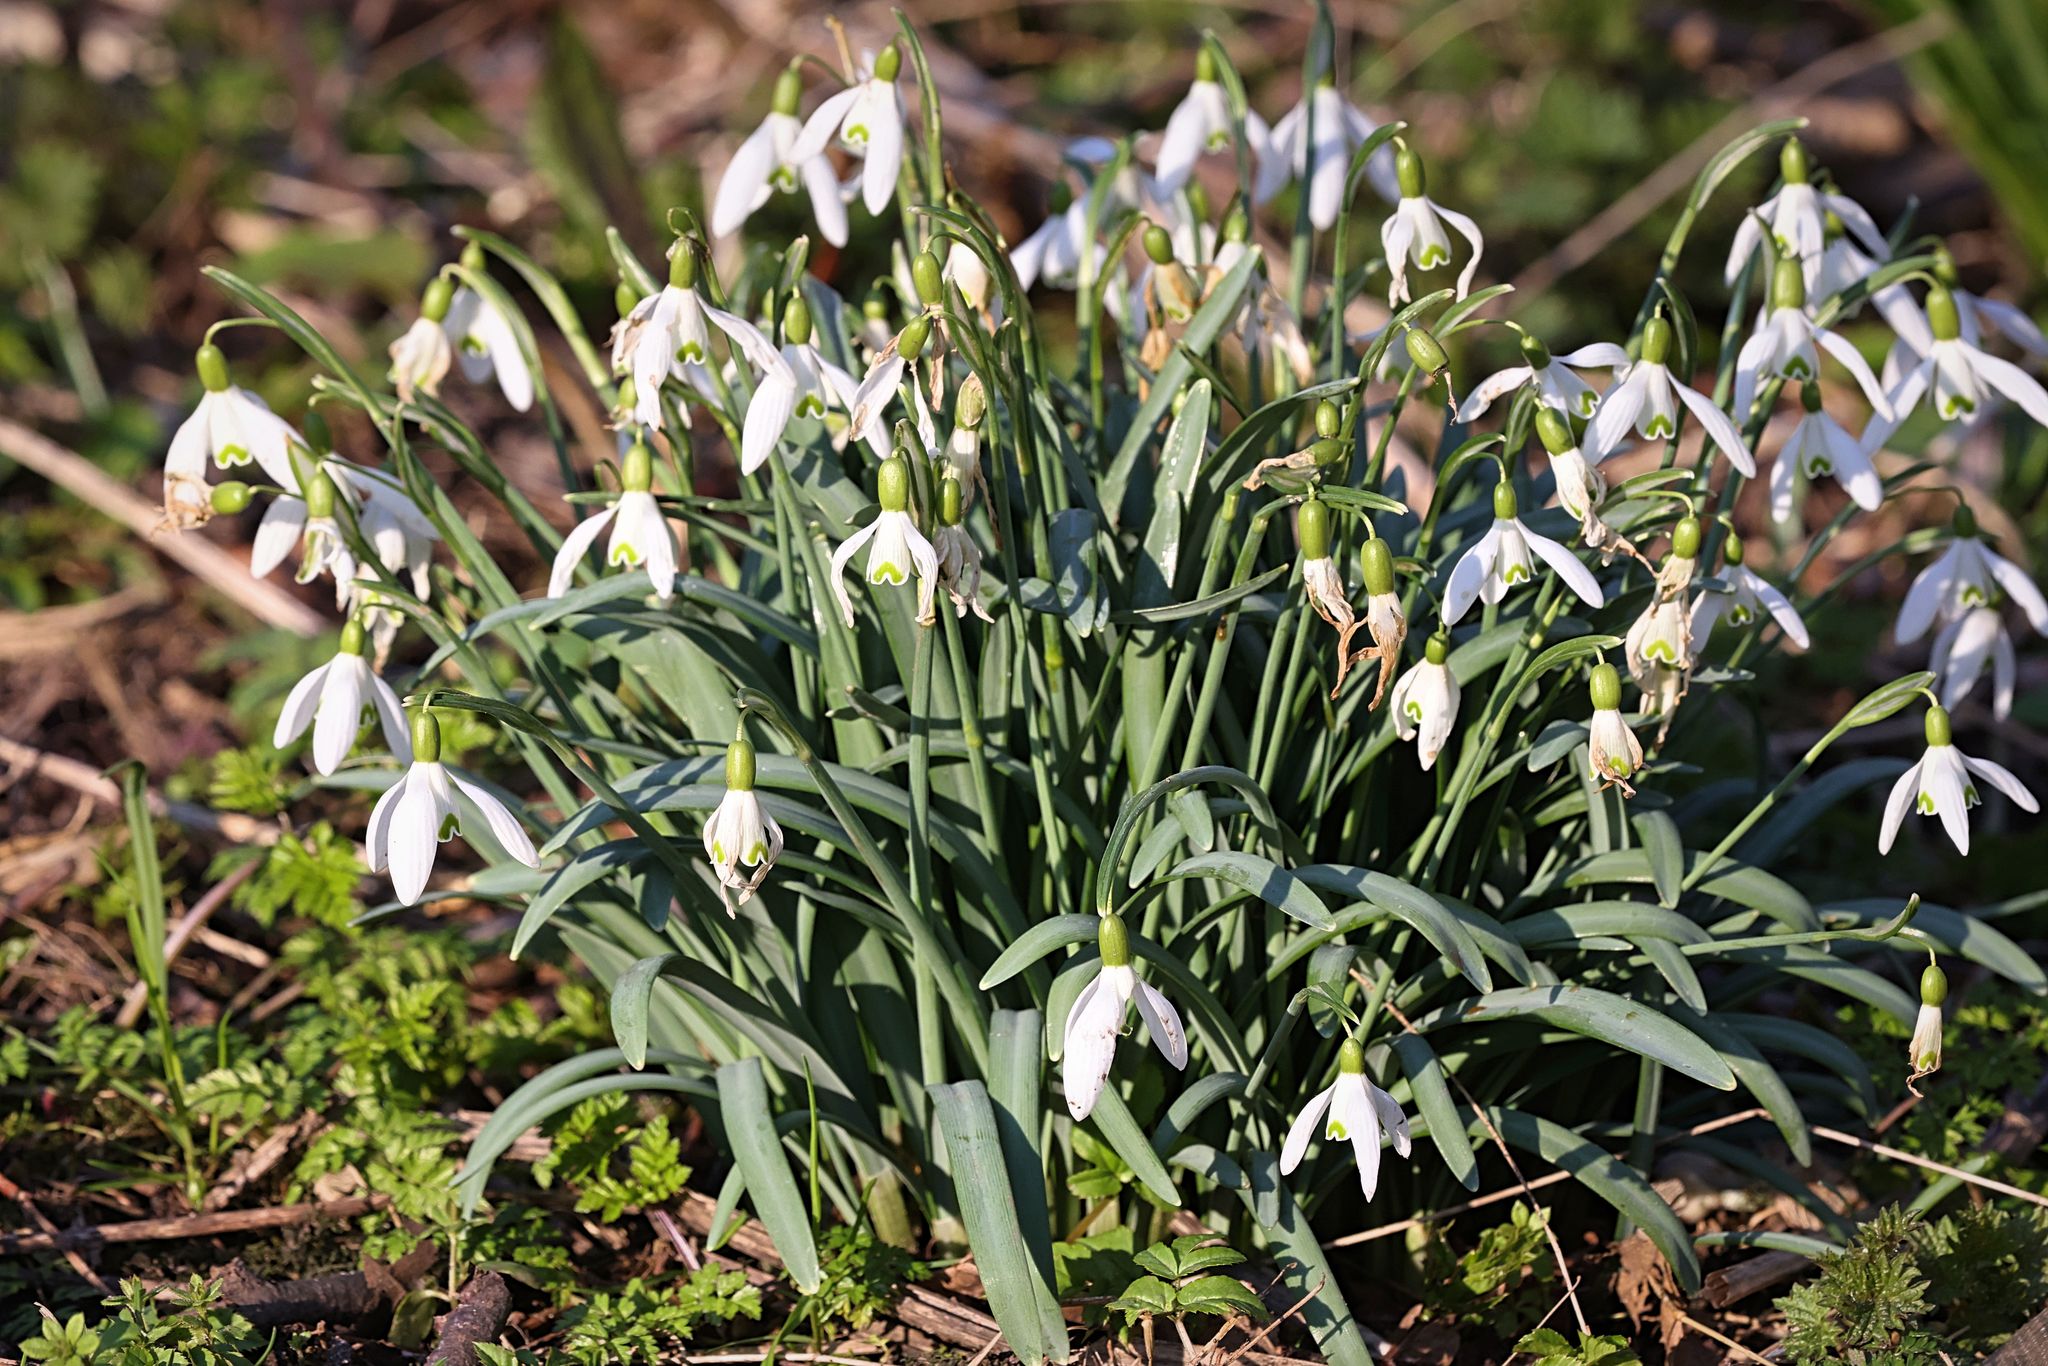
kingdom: Plantae
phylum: Tracheophyta
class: Liliopsida
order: Asparagales
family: Amaryllidaceae
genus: Galanthus
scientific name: Galanthus nivalis
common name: Snowdrop
